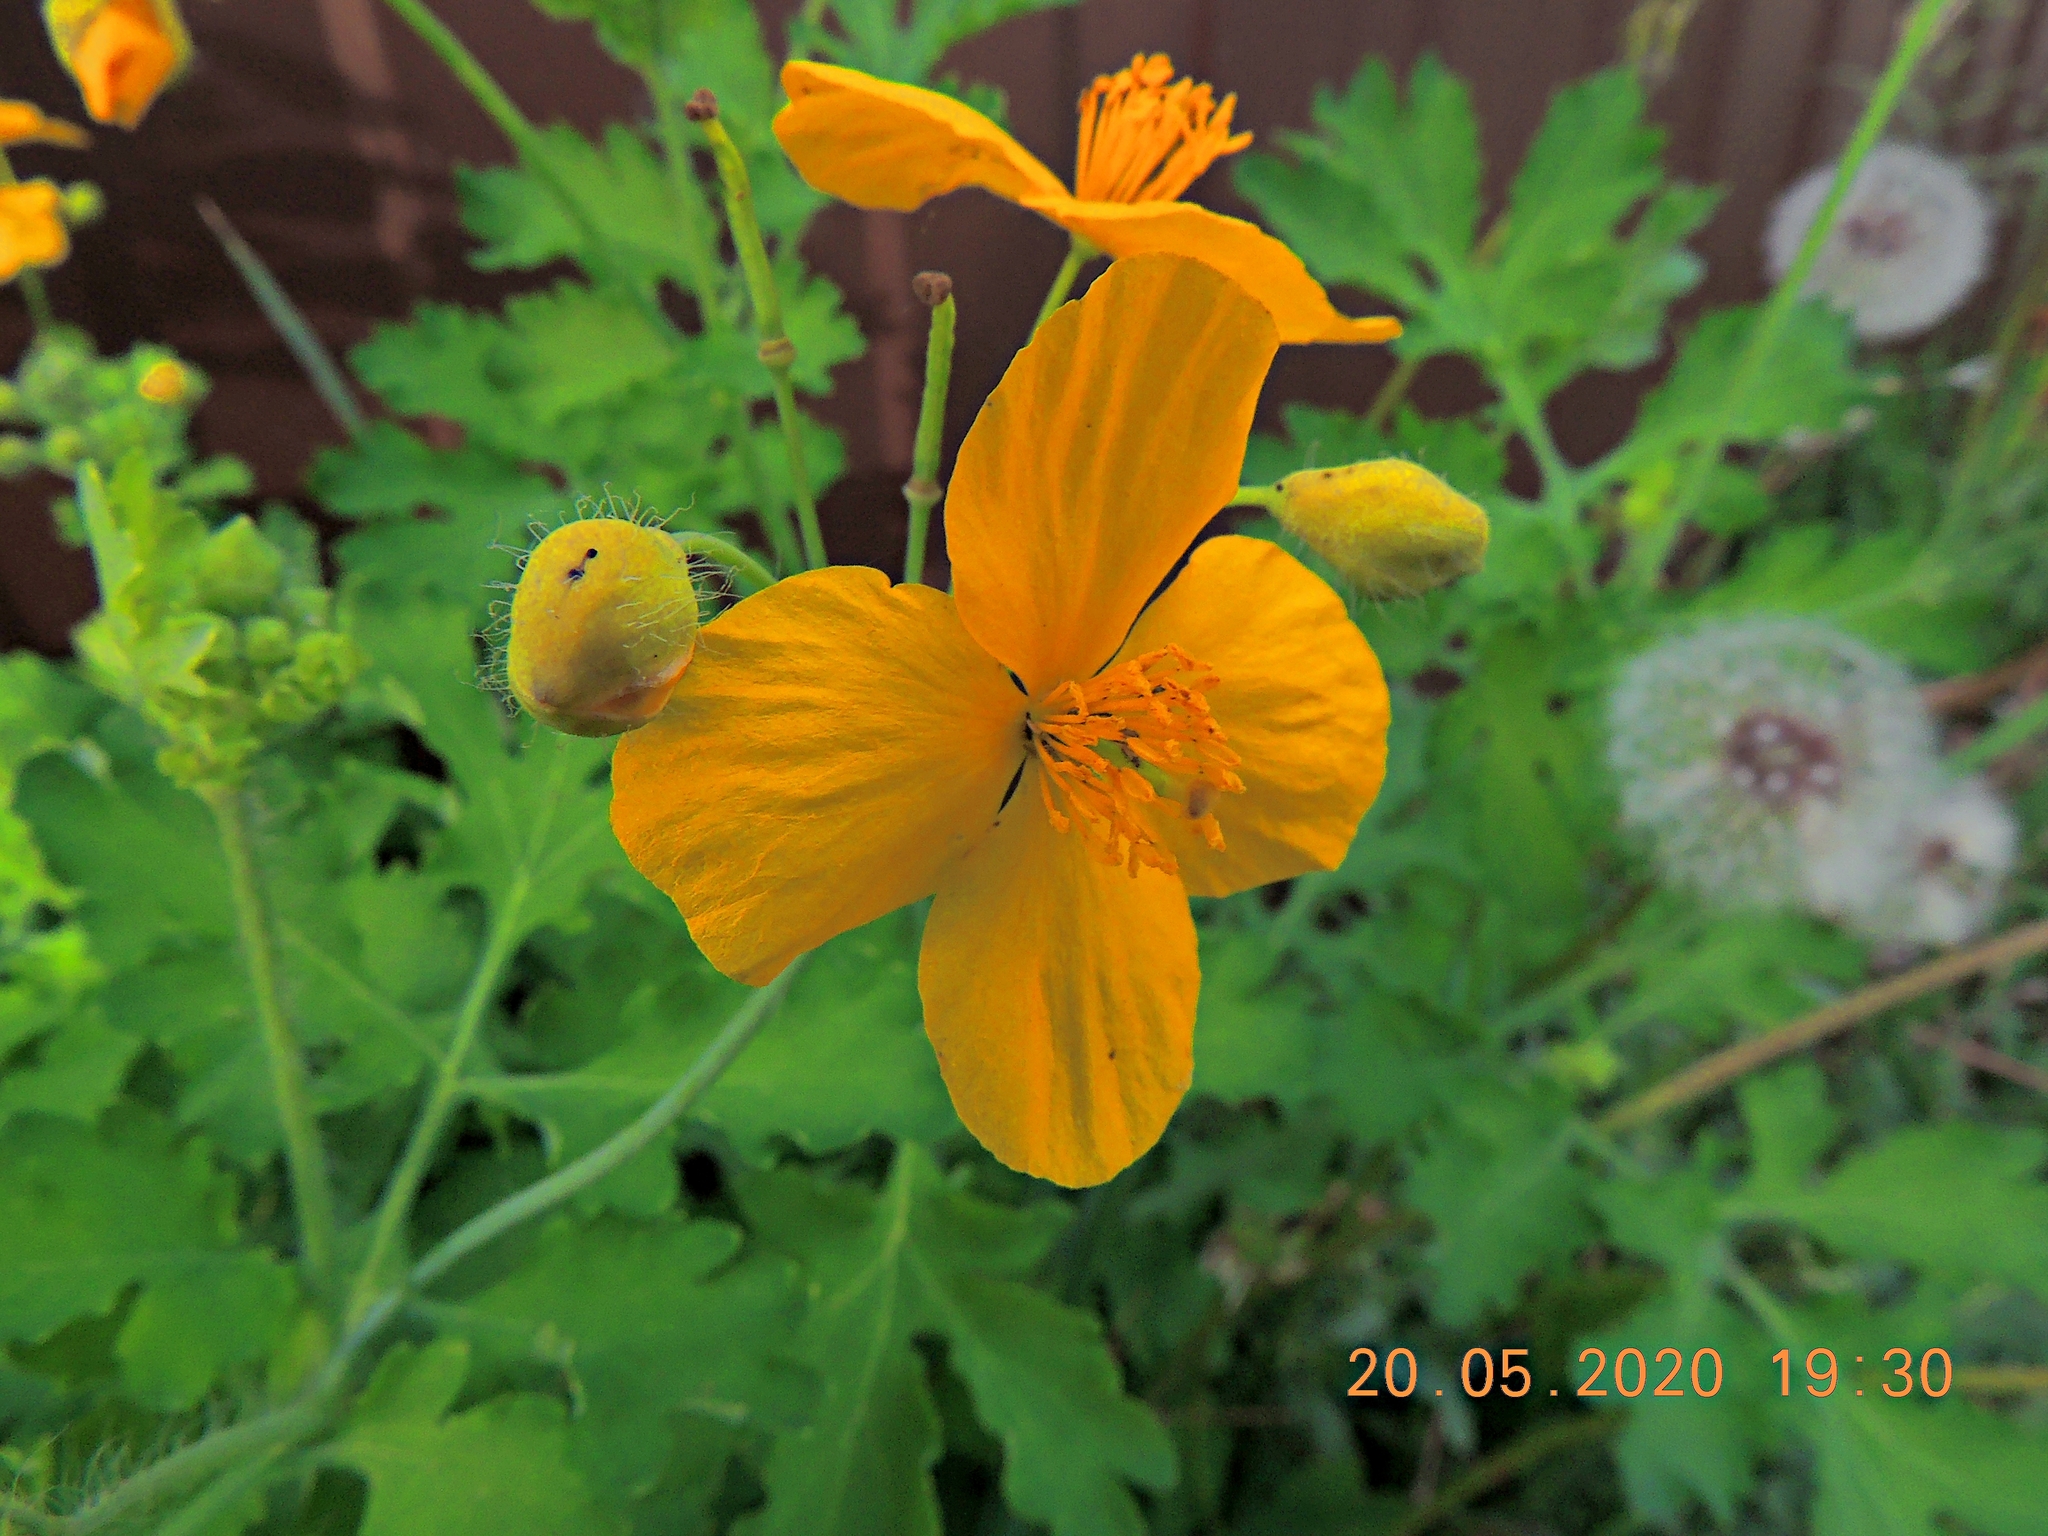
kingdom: Plantae
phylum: Tracheophyta
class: Magnoliopsida
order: Ranunculales
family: Papaveraceae
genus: Chelidonium
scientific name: Chelidonium majus
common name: Greater celandine
